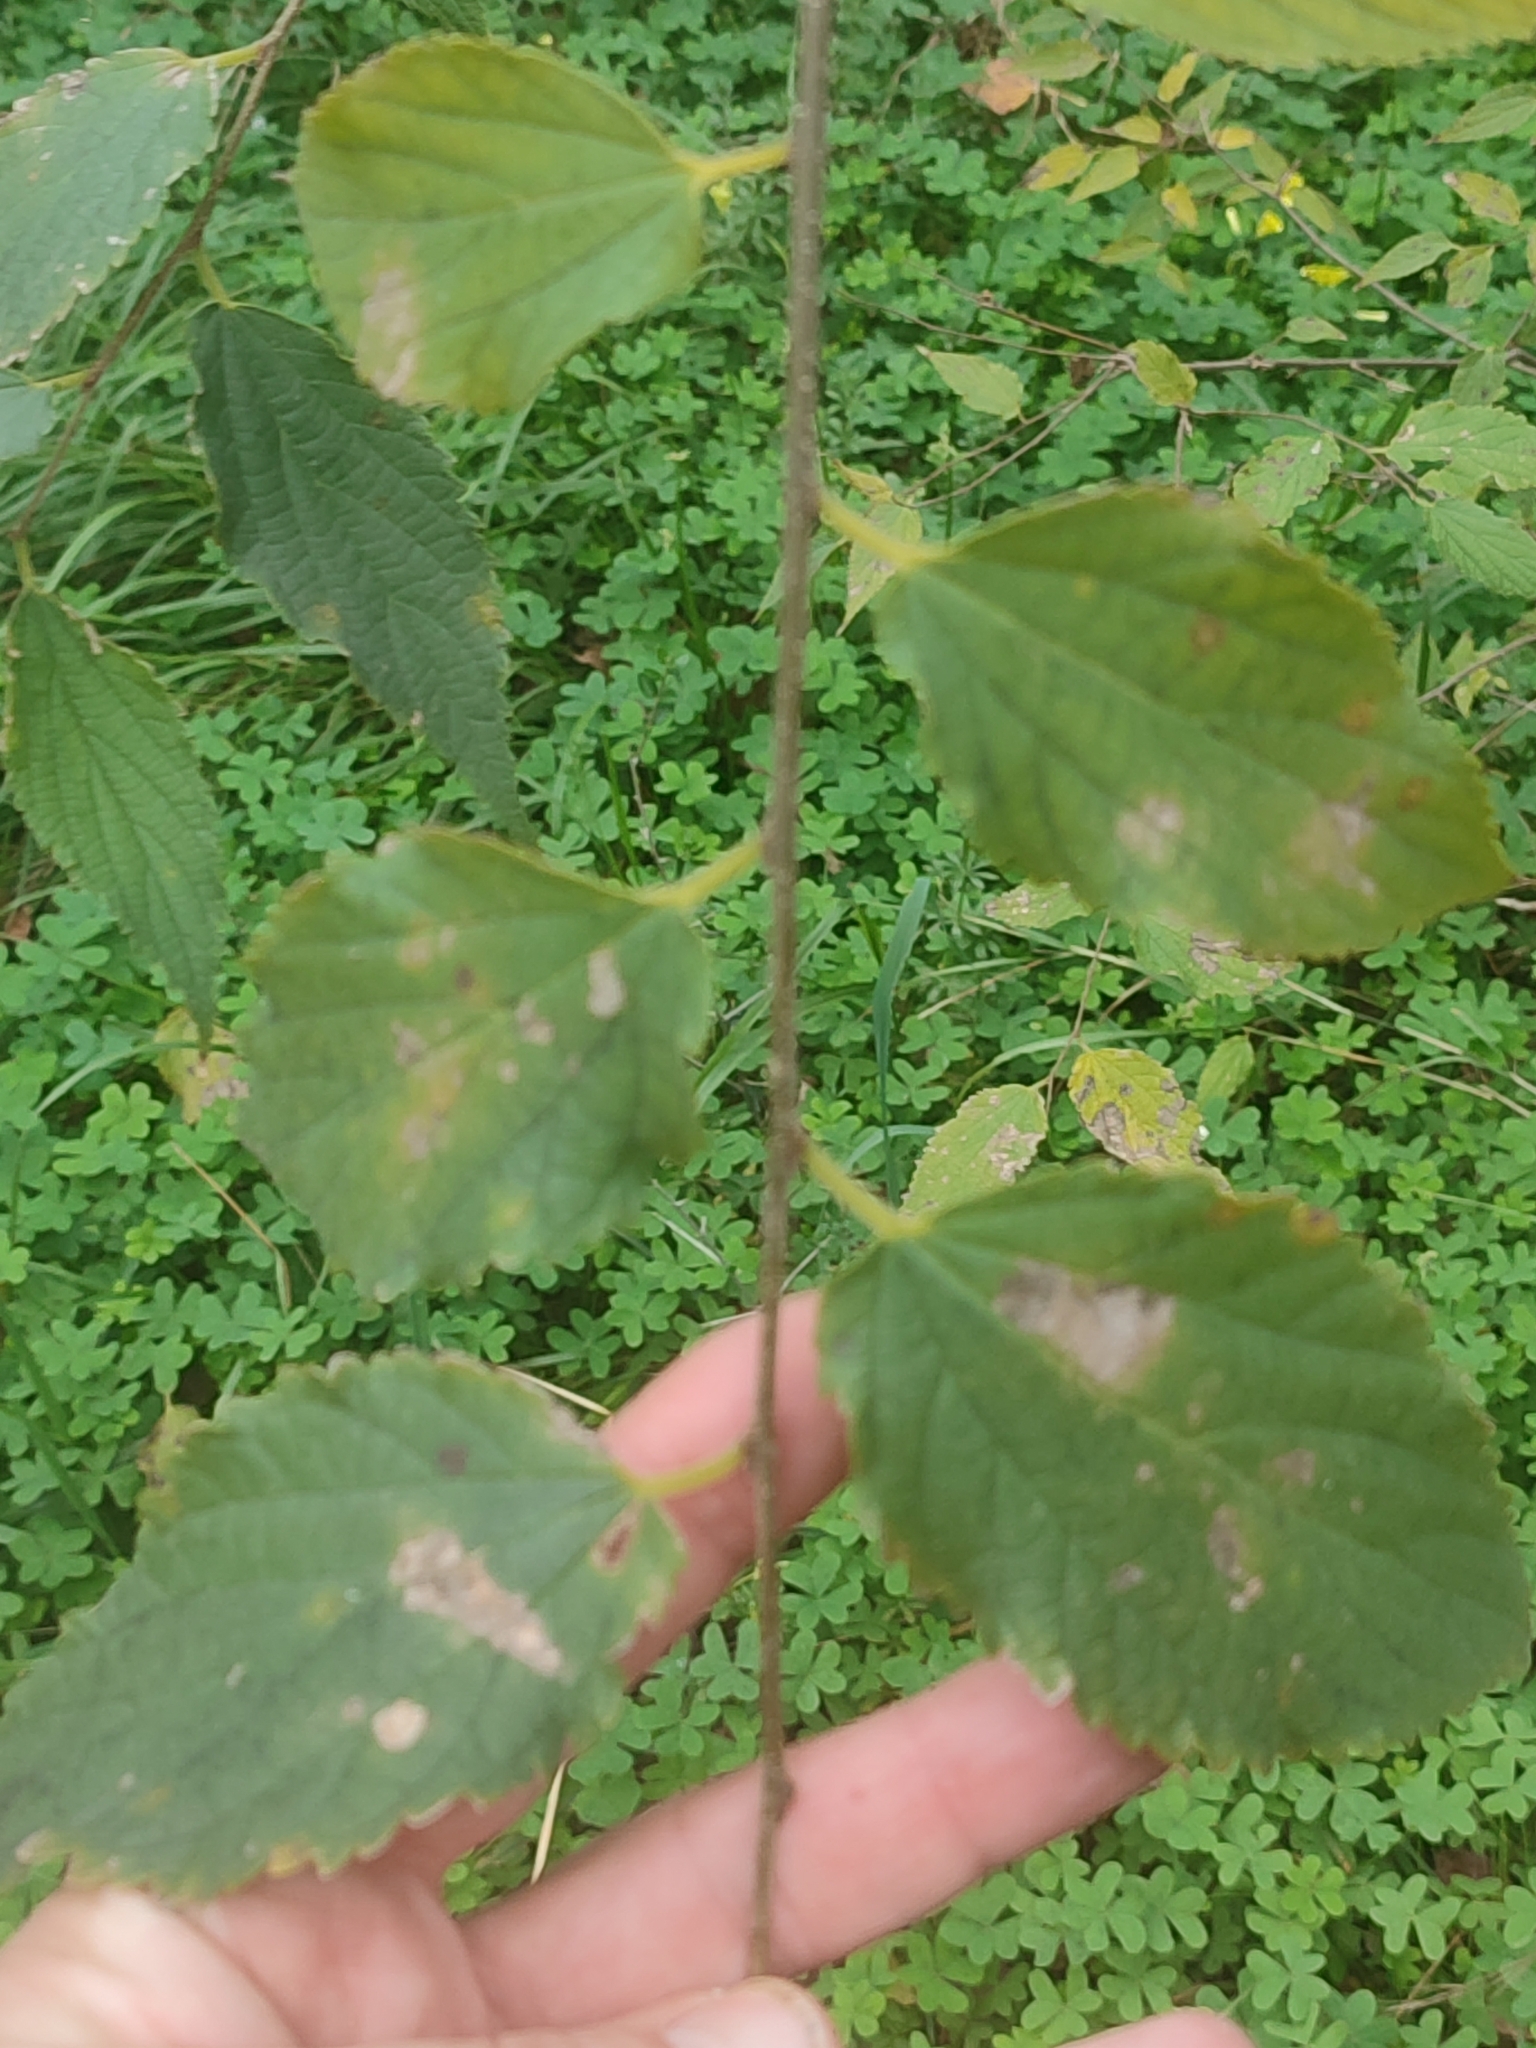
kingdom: Plantae
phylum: Tracheophyta
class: Magnoliopsida
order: Rosales
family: Cannabaceae
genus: Celtis
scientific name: Celtis australis
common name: European hackberry
